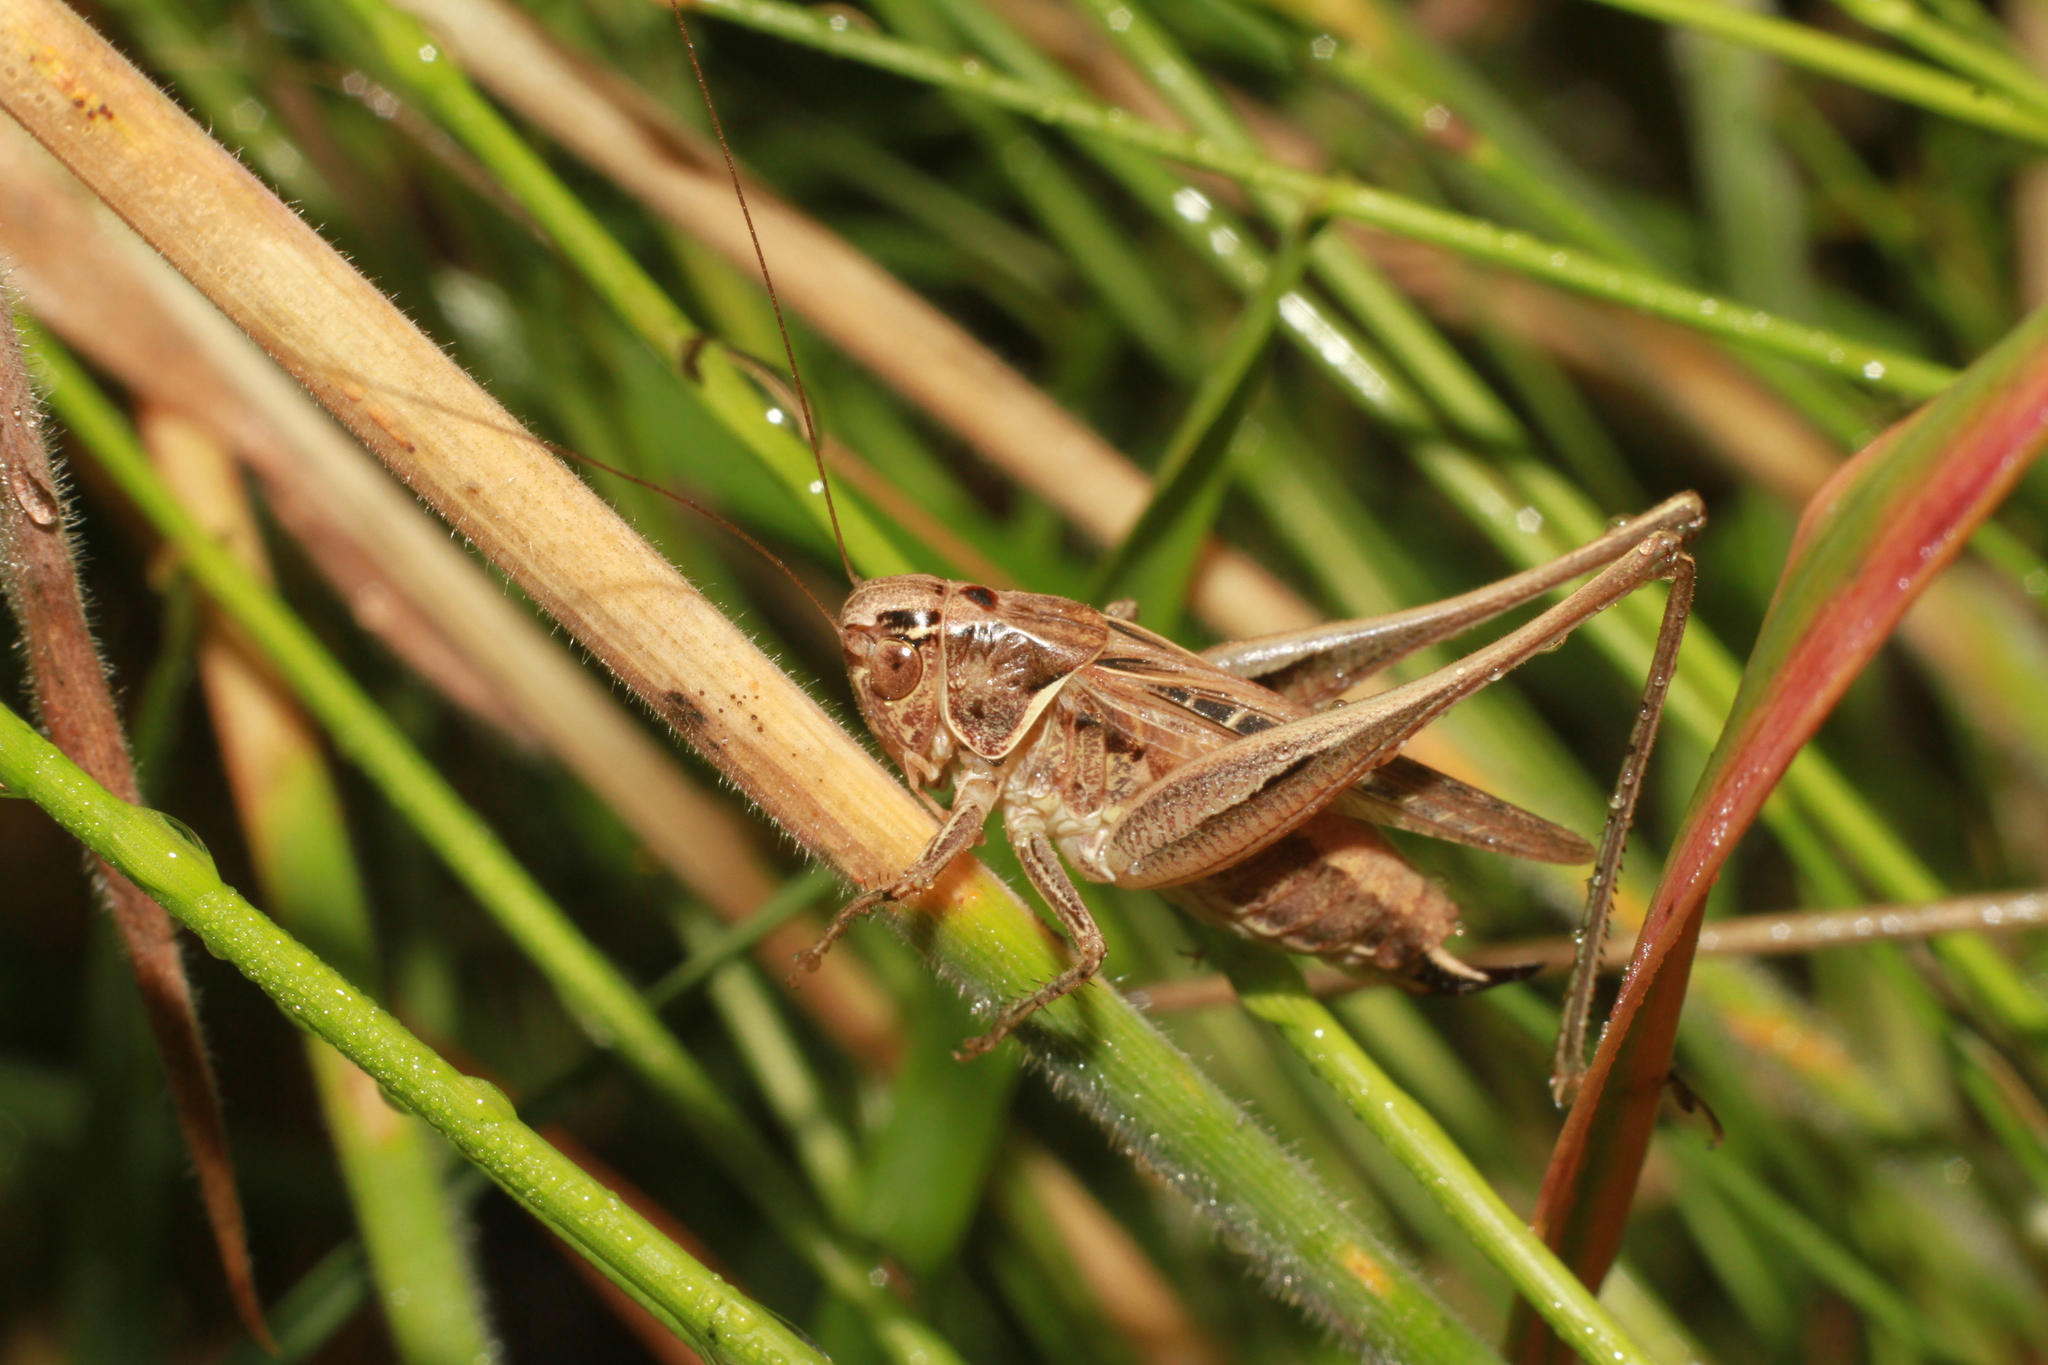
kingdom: Animalia
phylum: Arthropoda
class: Insecta
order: Orthoptera
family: Tettigoniidae
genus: Tessellana
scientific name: Tessellana tessellata
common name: Grasshopper
